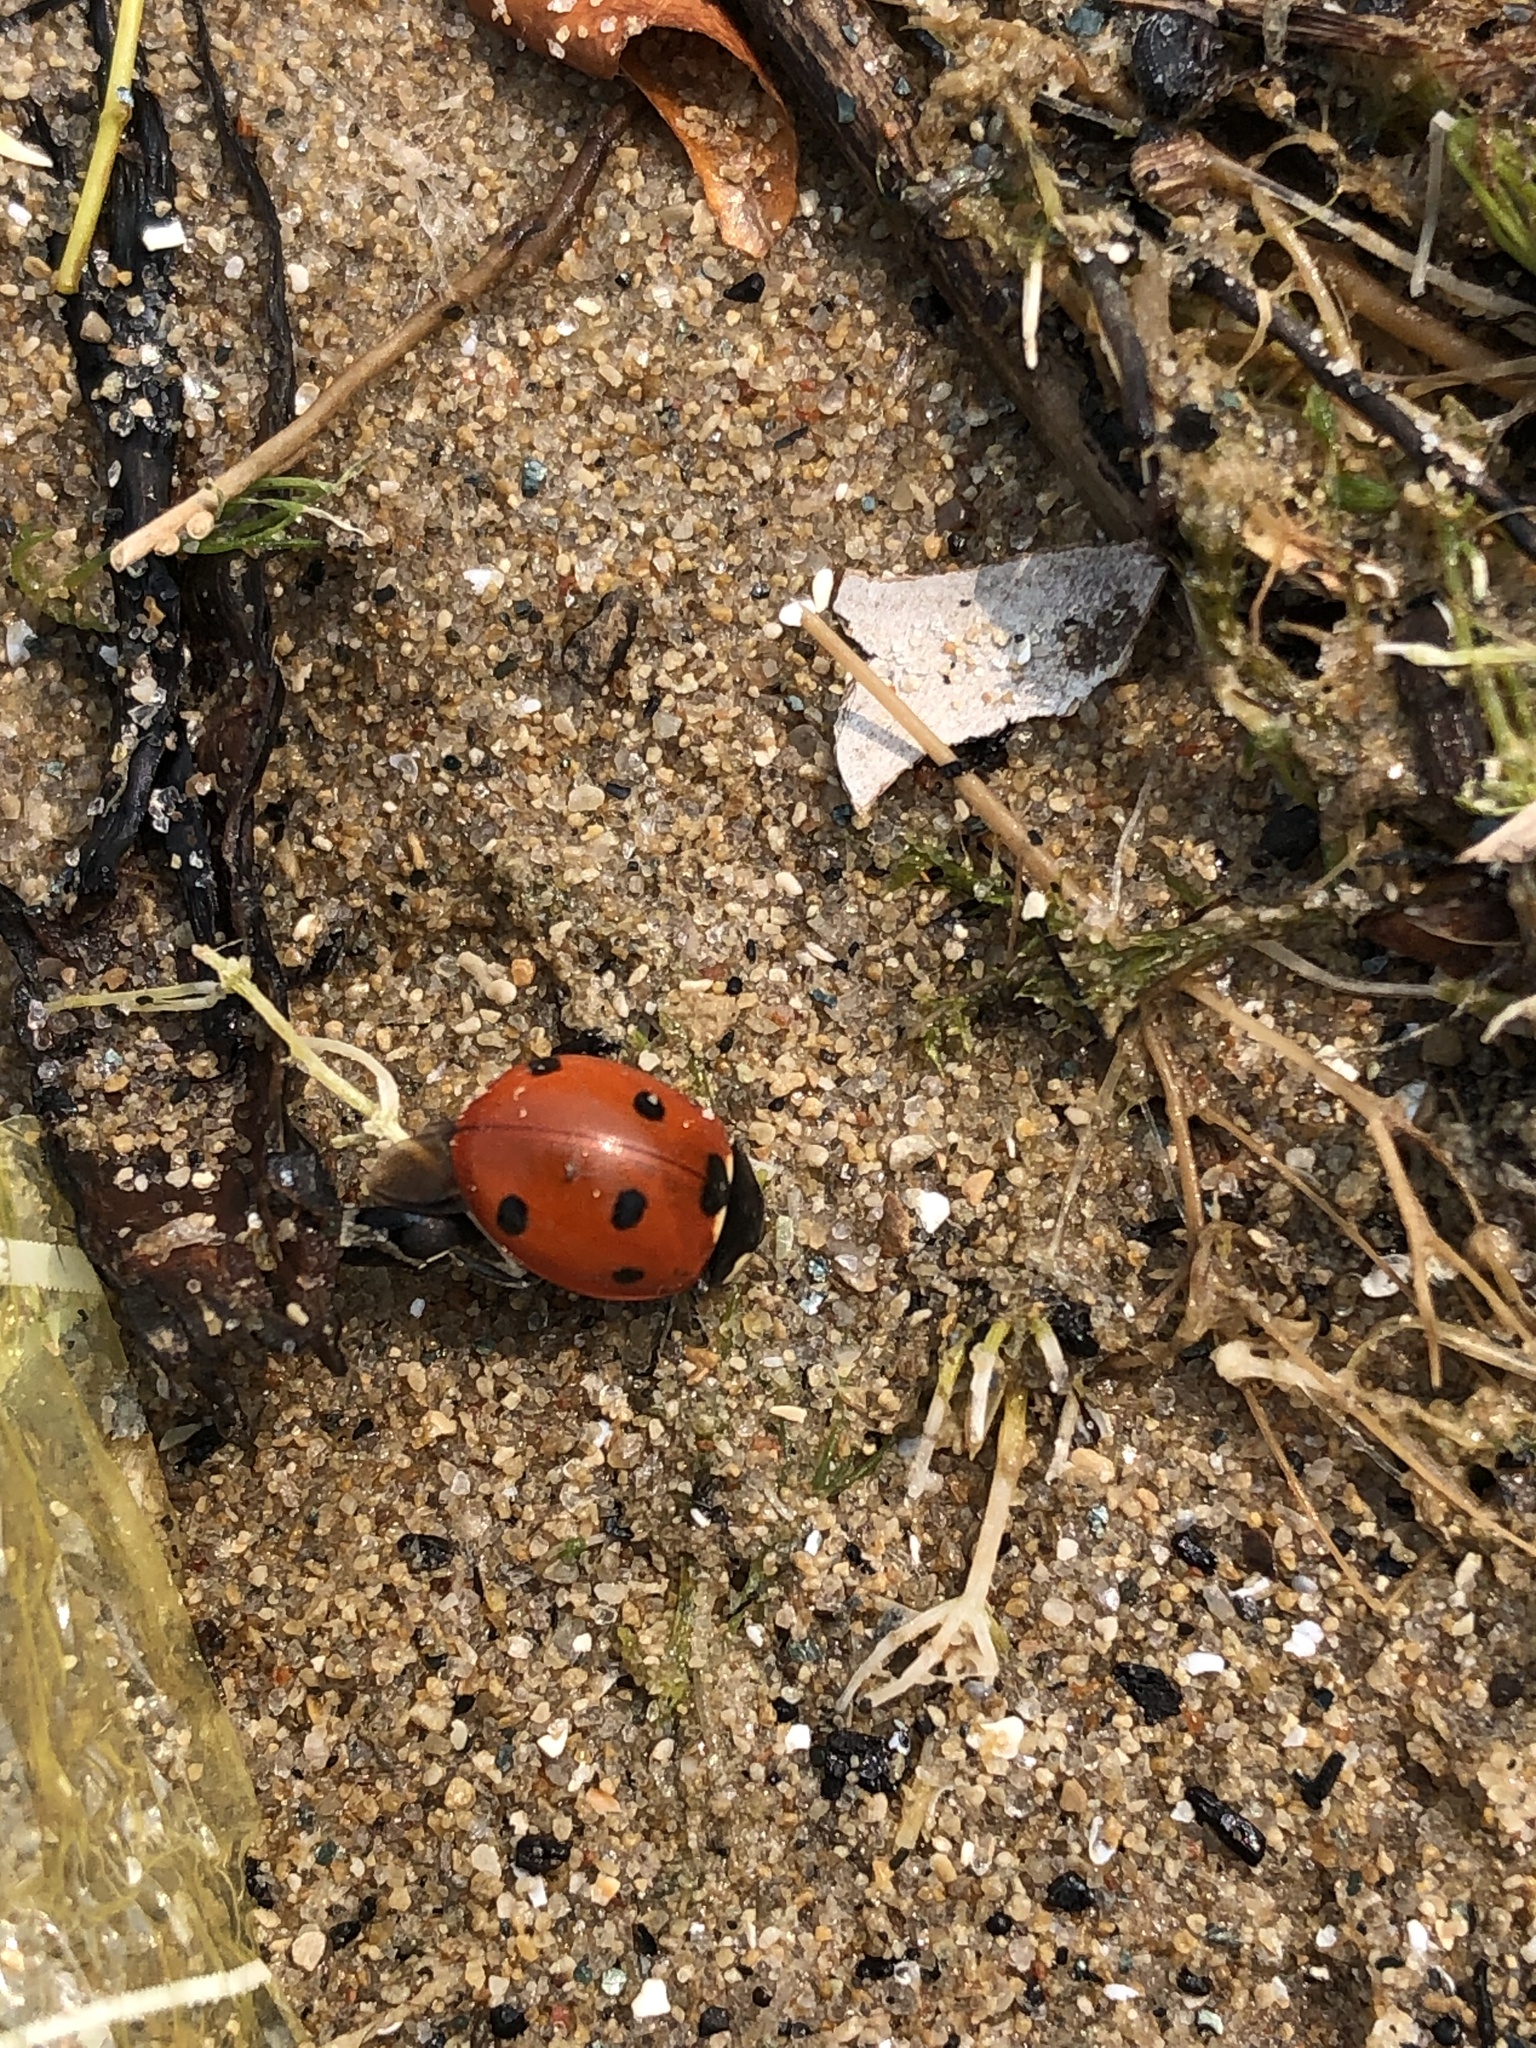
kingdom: Animalia
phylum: Arthropoda
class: Insecta
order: Coleoptera
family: Coccinellidae
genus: Coccinella
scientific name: Coccinella septempunctata
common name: Sevenspotted lady beetle
